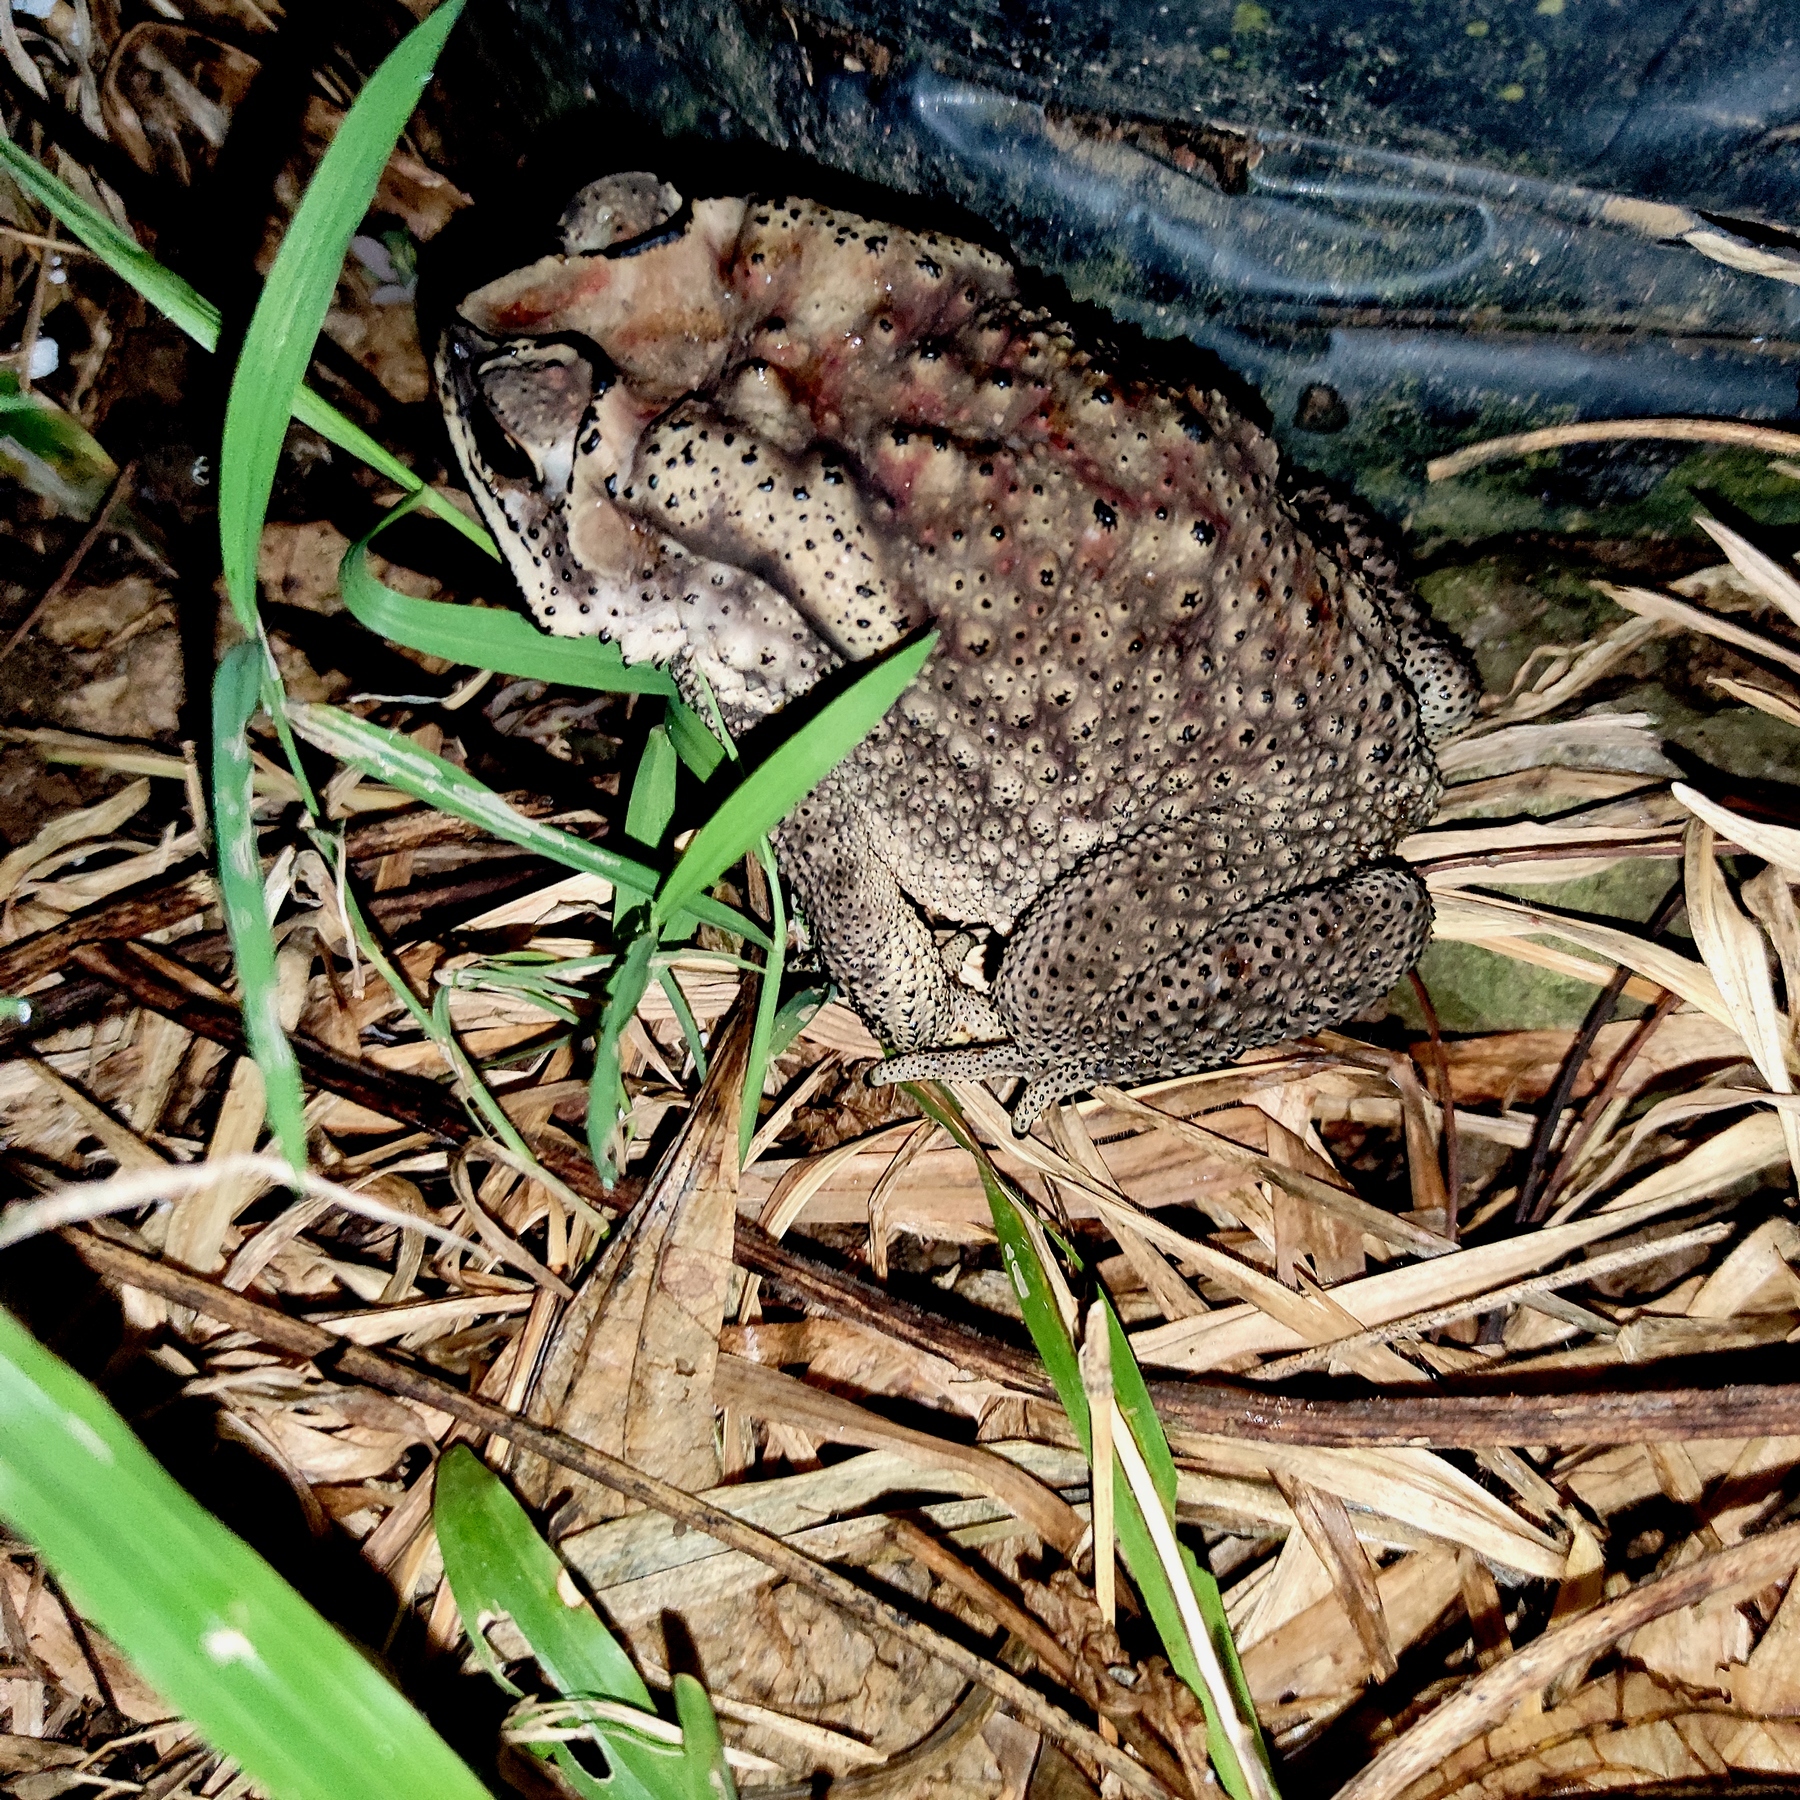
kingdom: Animalia
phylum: Chordata
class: Amphibia
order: Anura
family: Bufonidae
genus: Duttaphrynus
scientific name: Duttaphrynus melanostictus
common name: Common sunda toad
